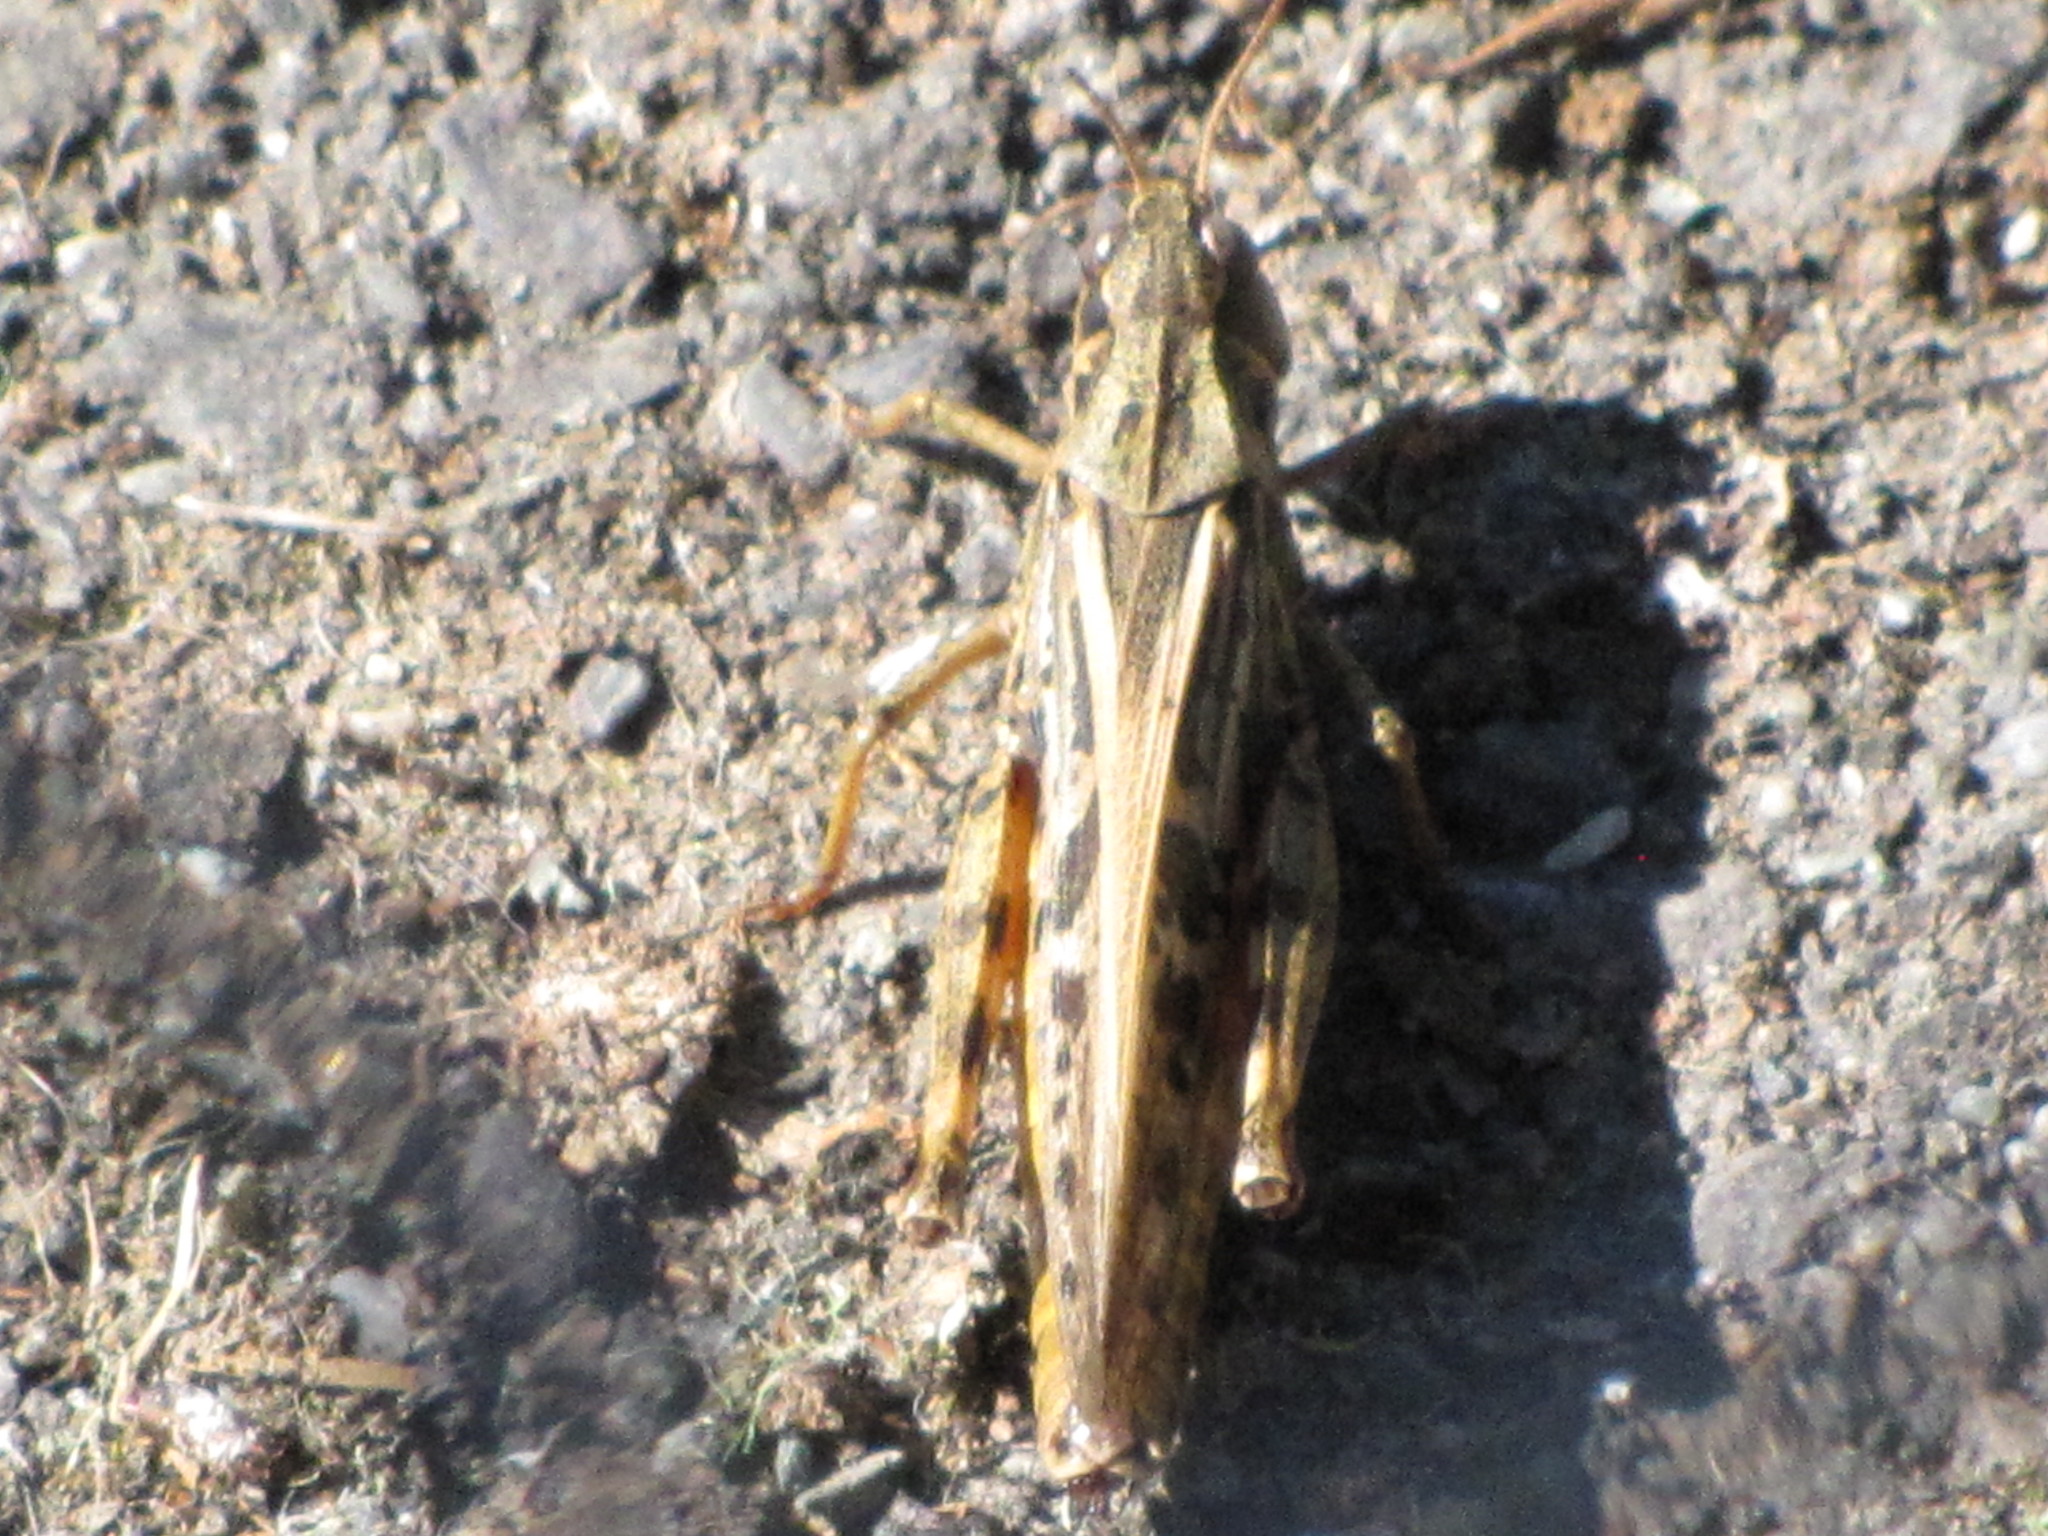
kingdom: Animalia
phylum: Arthropoda
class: Insecta
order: Orthoptera
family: Acrididae
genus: Camnula
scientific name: Camnula pellucida
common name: Clear-winged grasshopper
